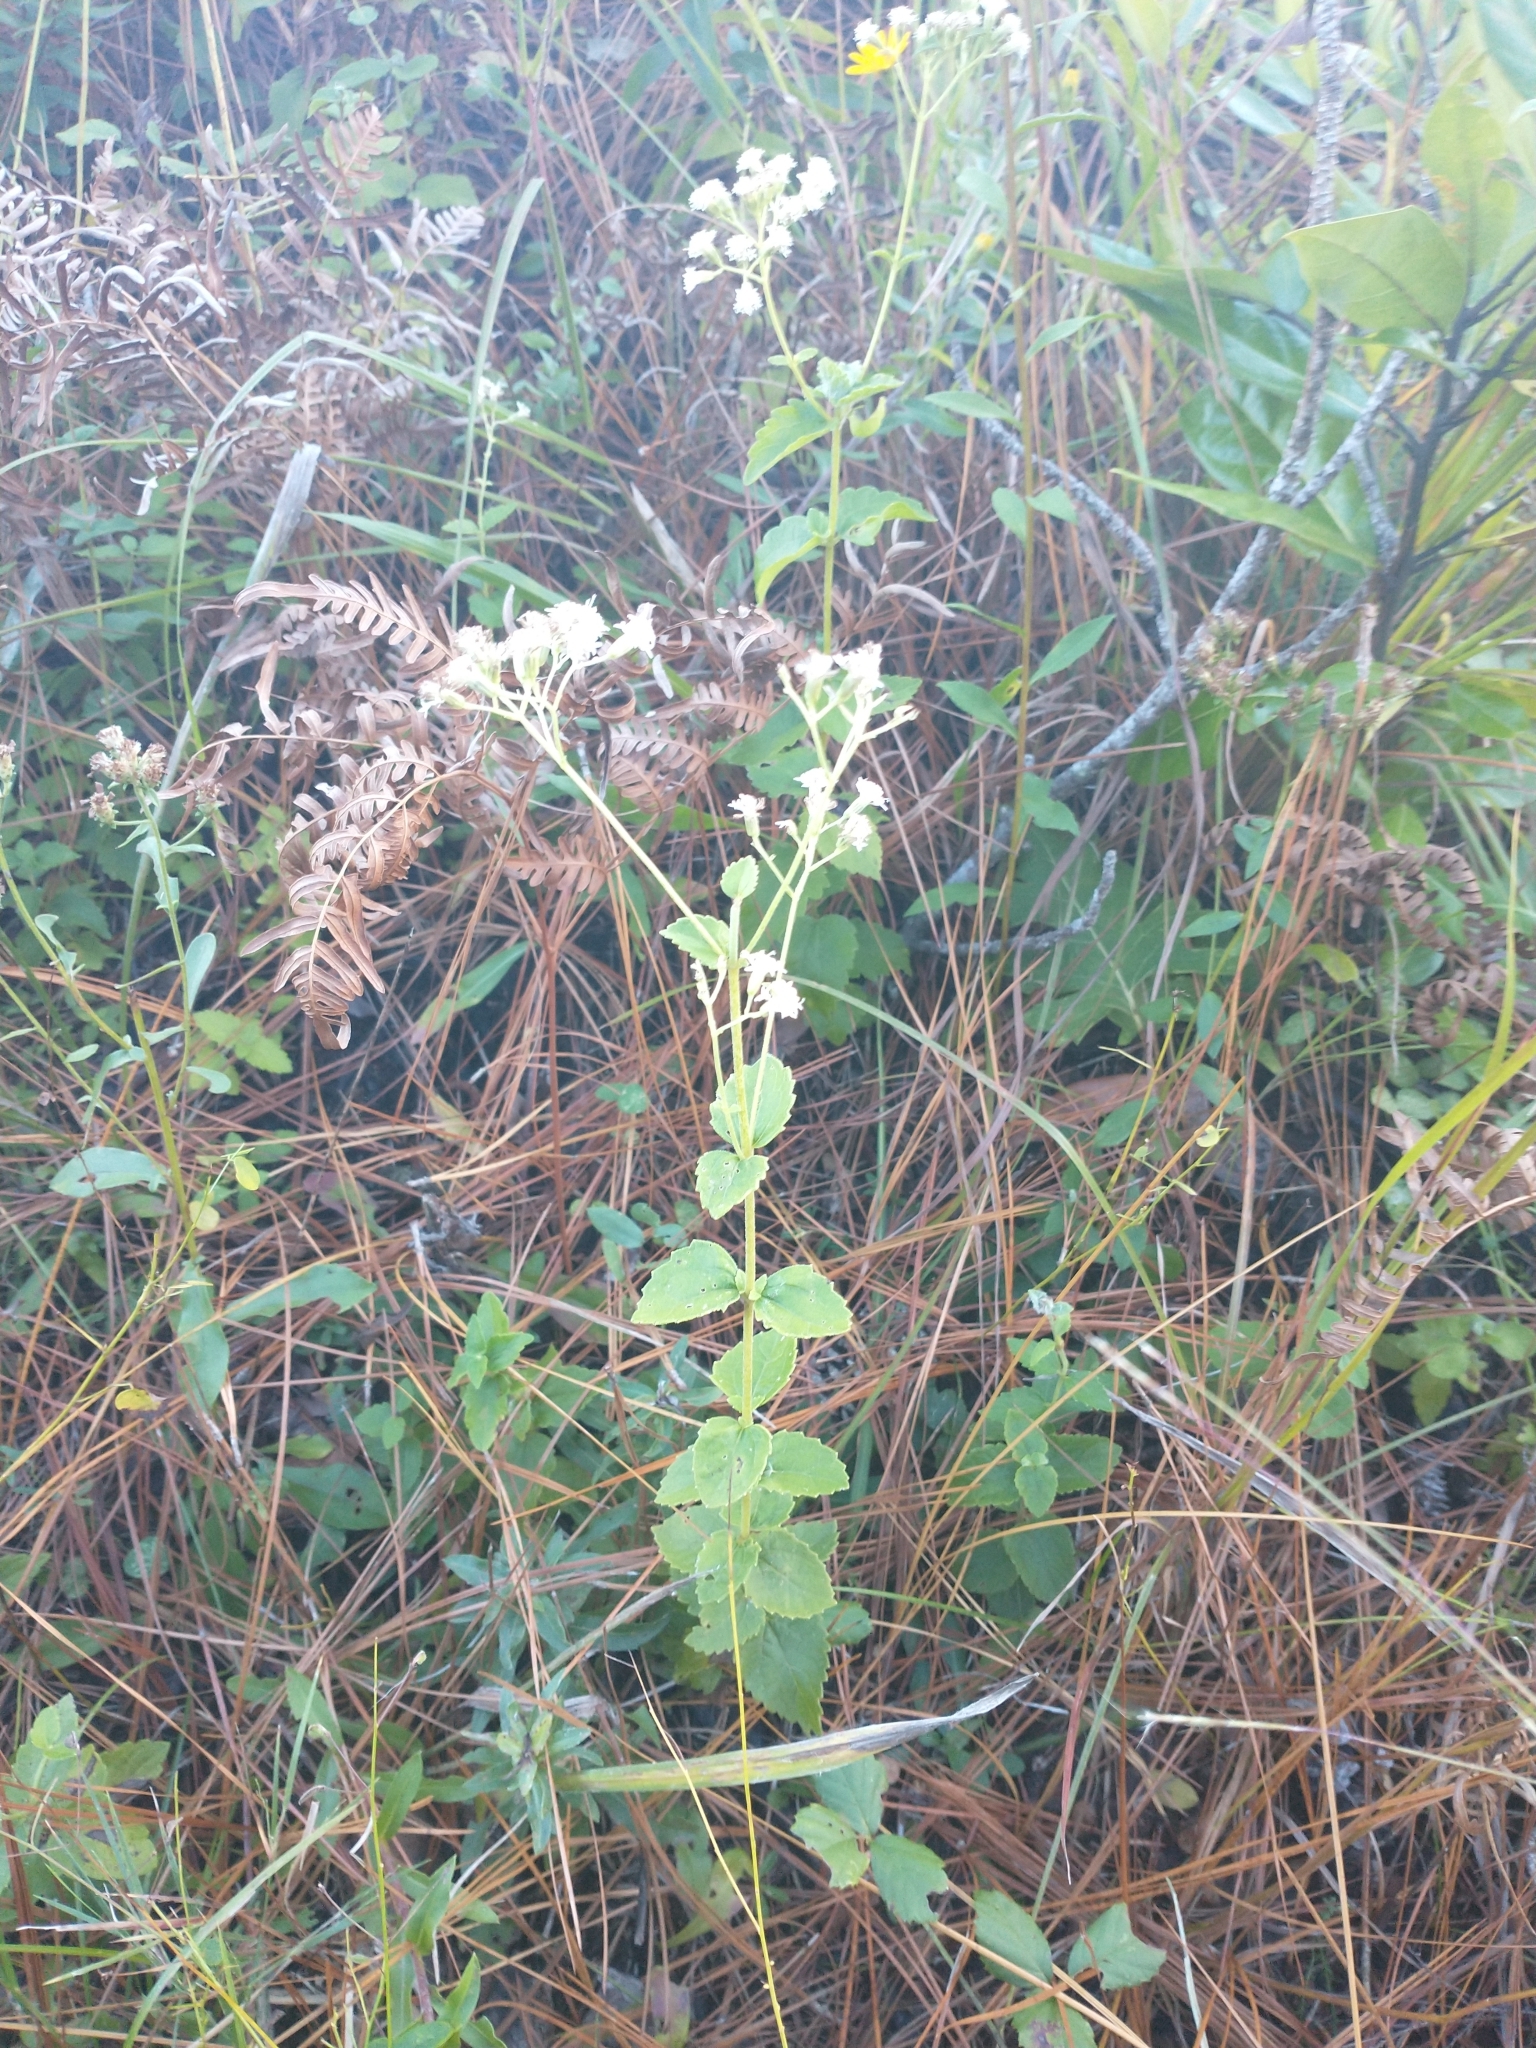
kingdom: Plantae
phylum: Tracheophyta
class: Magnoliopsida
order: Asterales
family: Asteraceae
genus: Ageratina
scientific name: Ageratina aromatica
